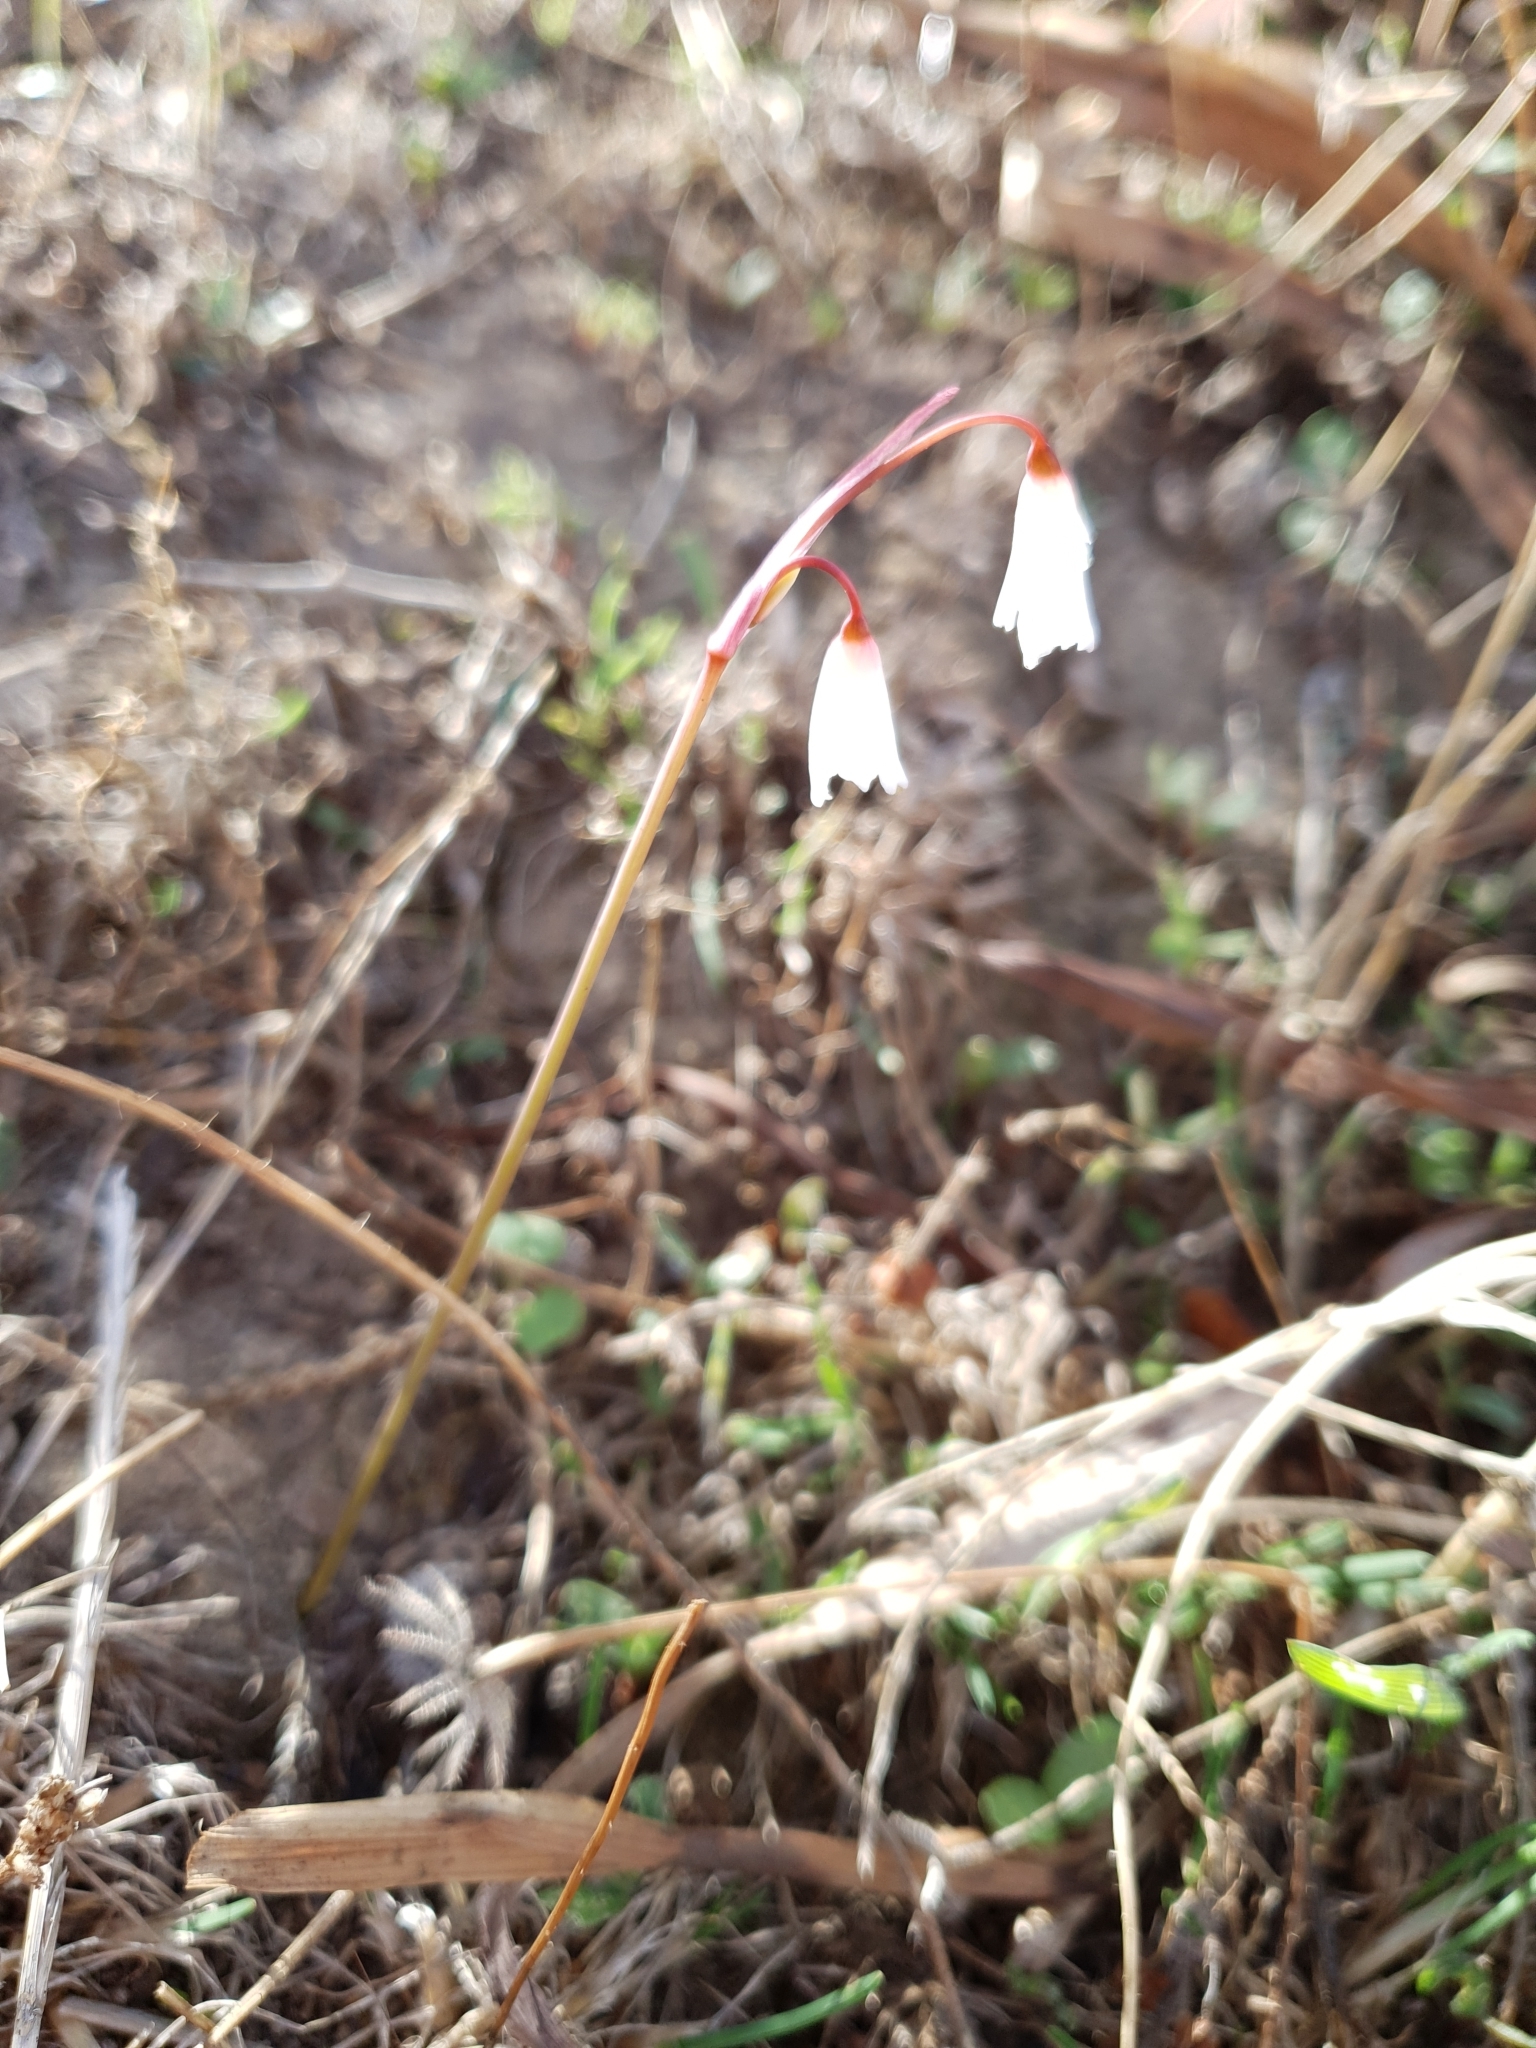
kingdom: Plantae
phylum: Tracheophyta
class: Liliopsida
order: Asparagales
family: Amaryllidaceae
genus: Acis
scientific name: Acis autumnalis
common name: Autumn snowflake
